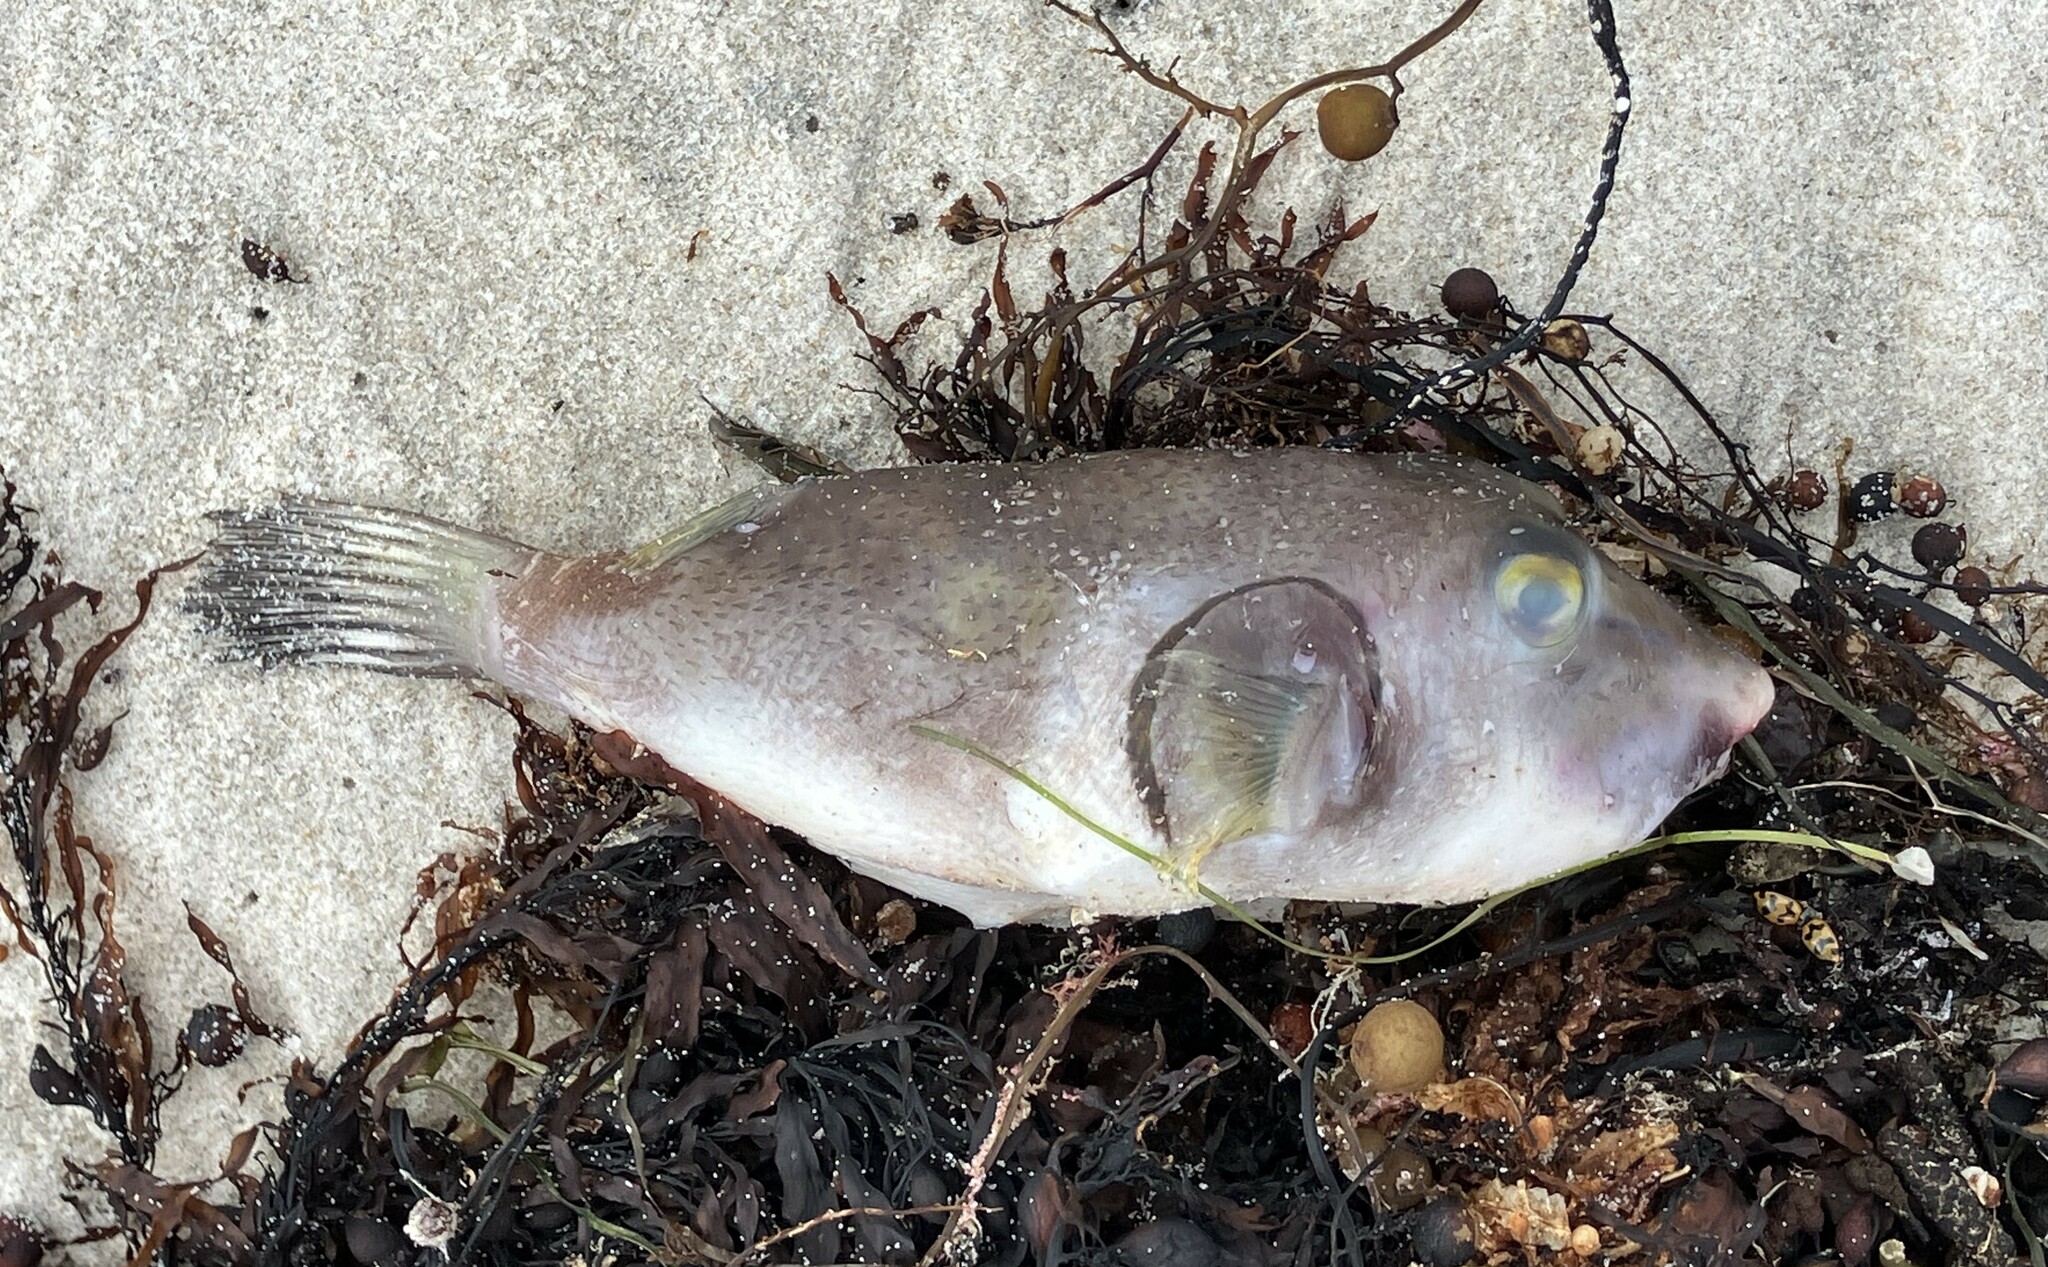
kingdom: Animalia
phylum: Chordata
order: Tetraodontiformes
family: Tetraodontidae
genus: Omegophora
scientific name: Omegophora armilla
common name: Ringed pufferfish
